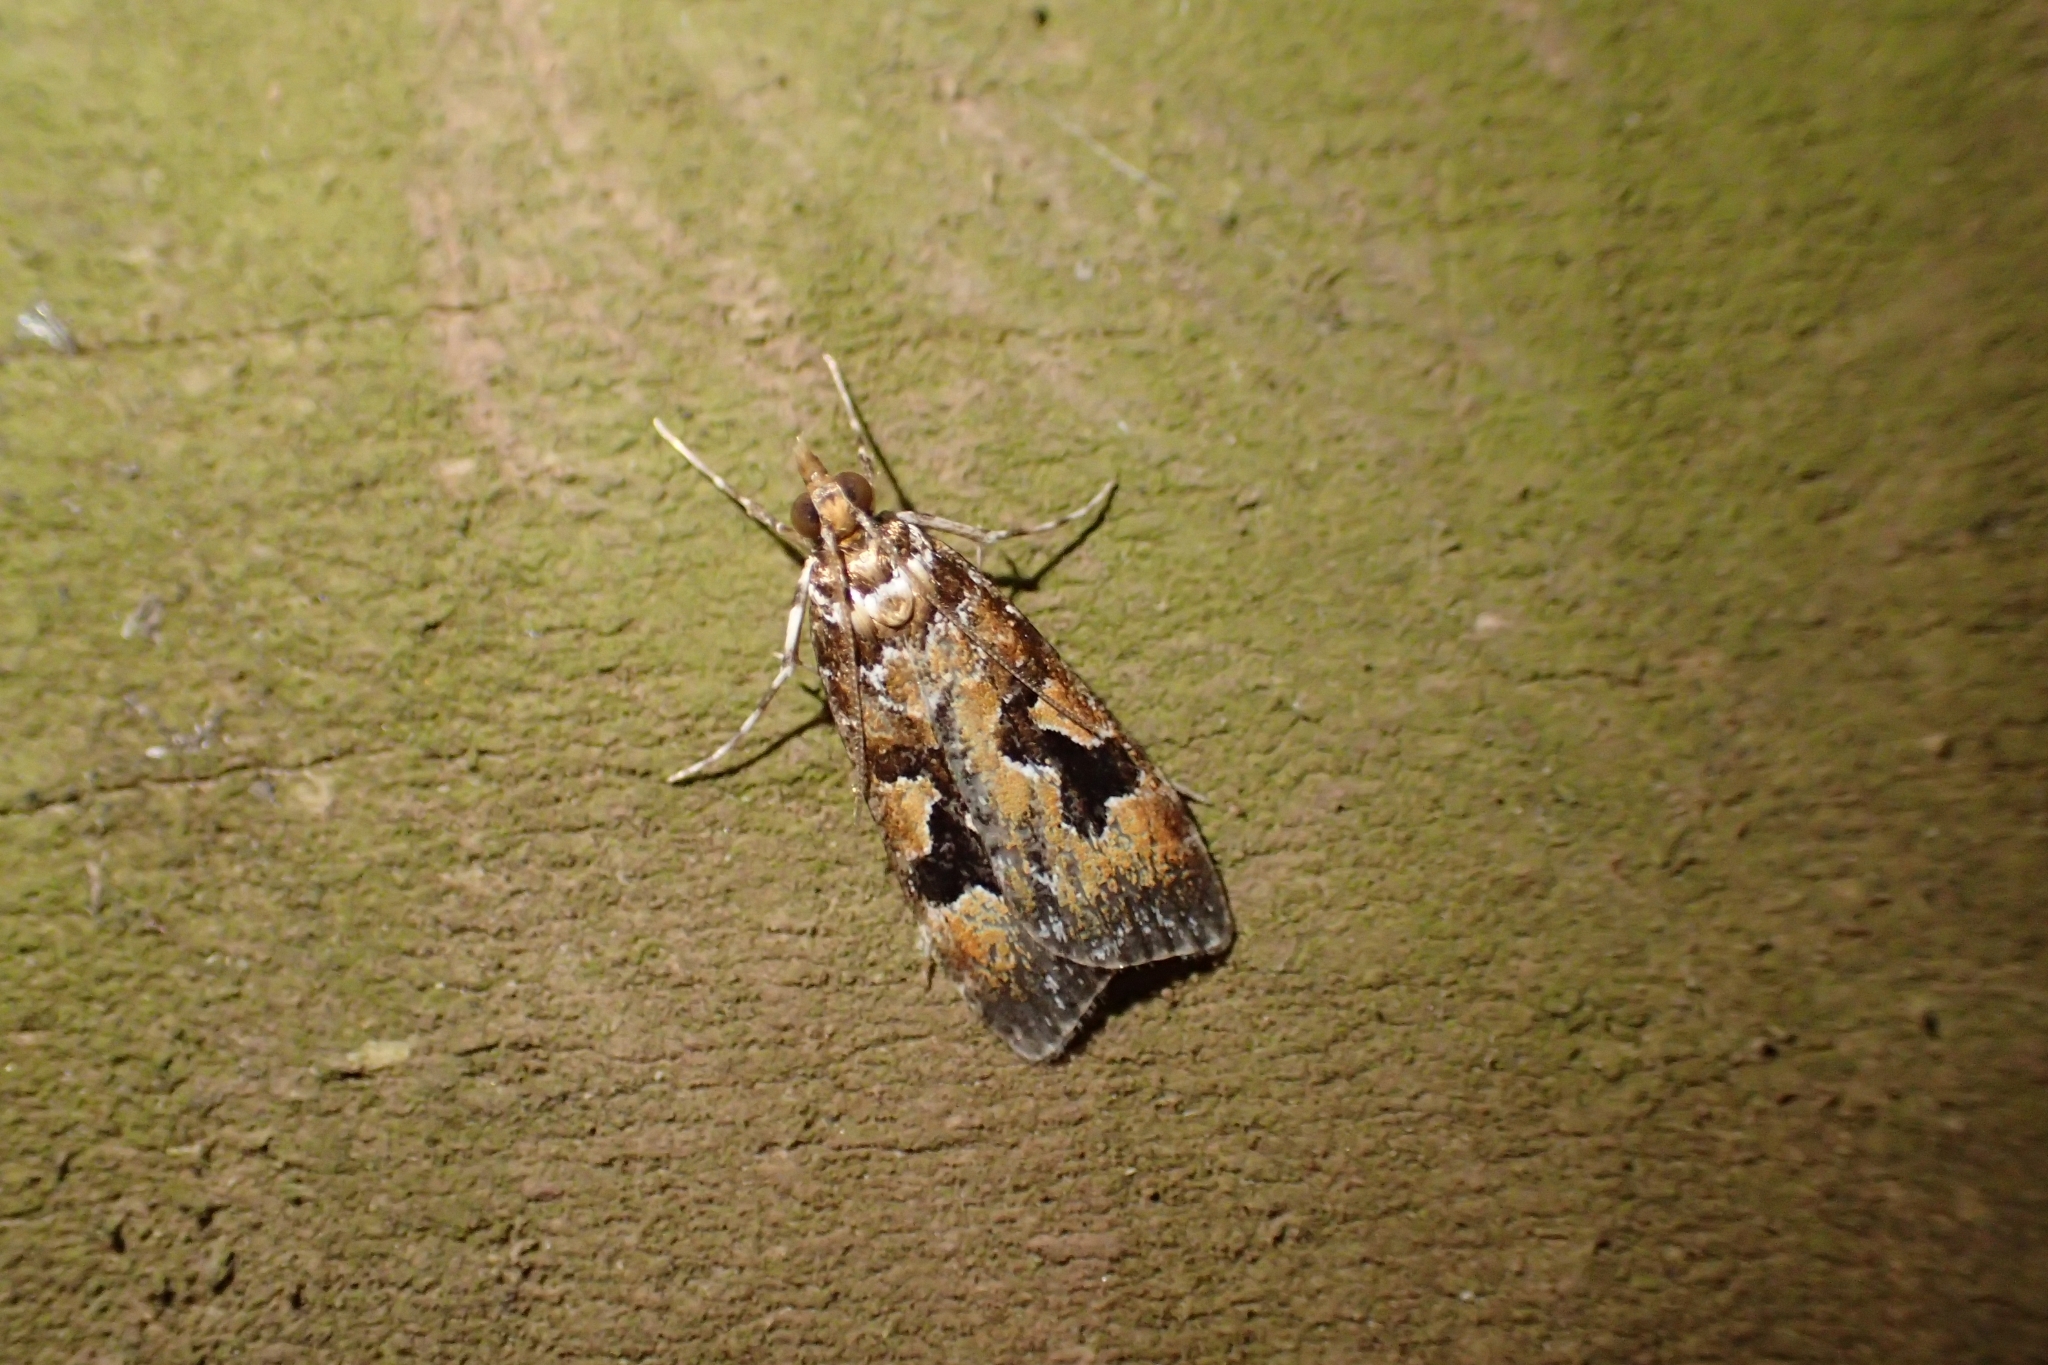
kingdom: Animalia
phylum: Arthropoda
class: Insecta
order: Lepidoptera
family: Crambidae
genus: Scoparia
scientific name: Scoparia ustimacula
